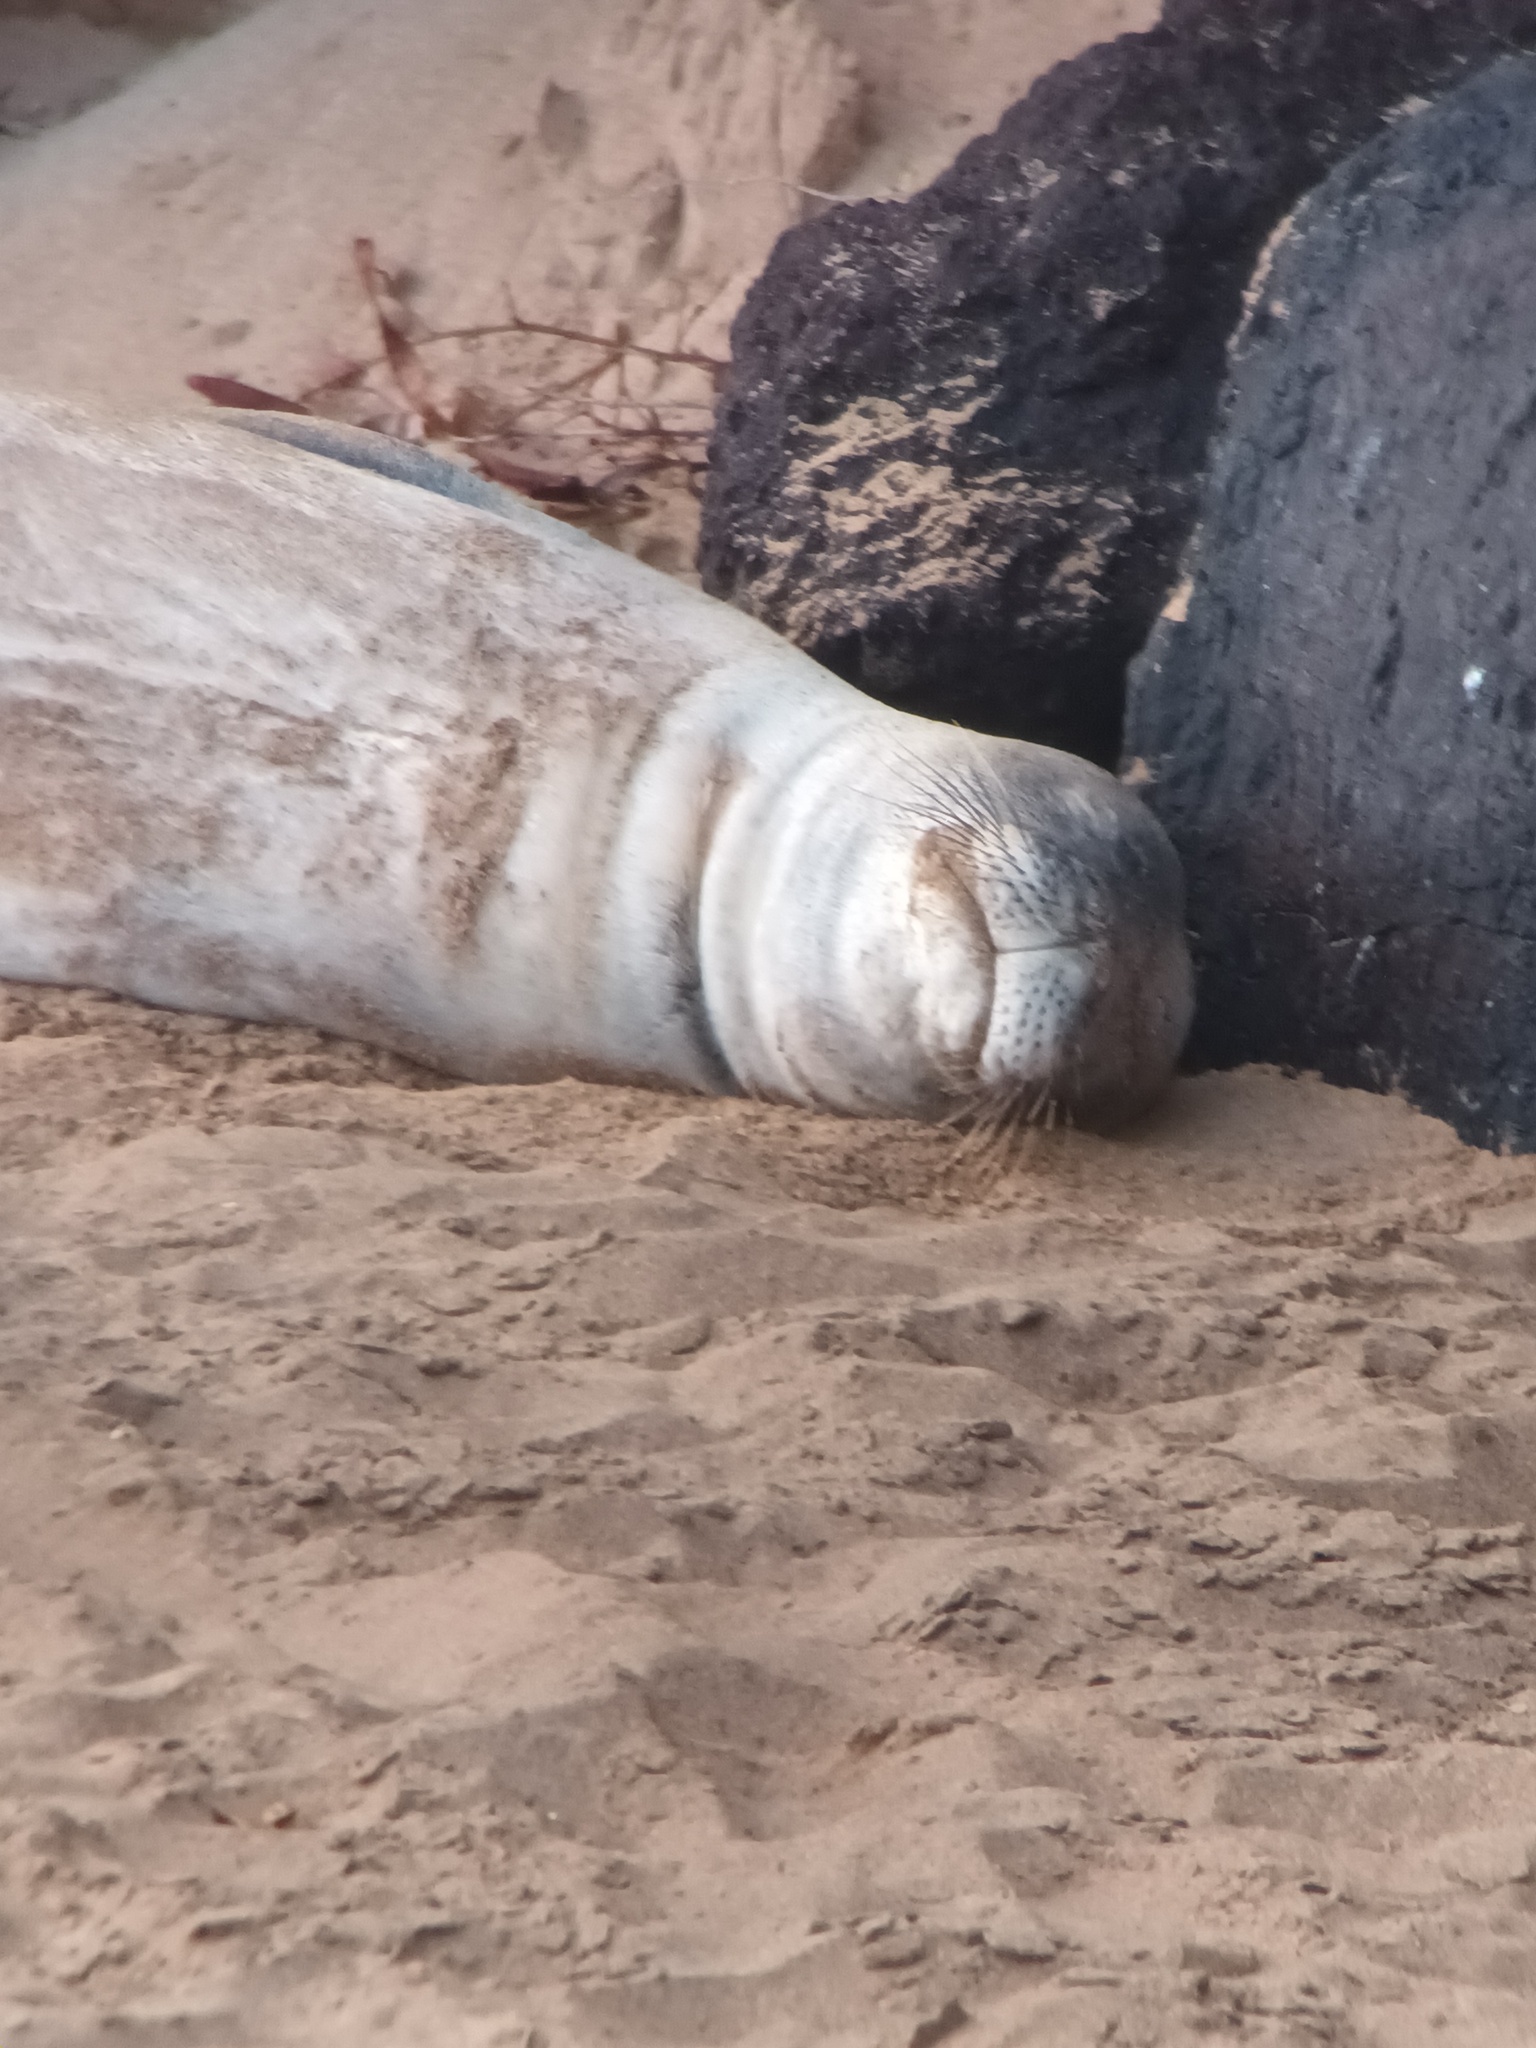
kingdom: Animalia
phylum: Chordata
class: Mammalia
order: Carnivora
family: Phocidae
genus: Neomonachus
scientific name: Neomonachus schauinslandi
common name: Hawaiian monk seal
